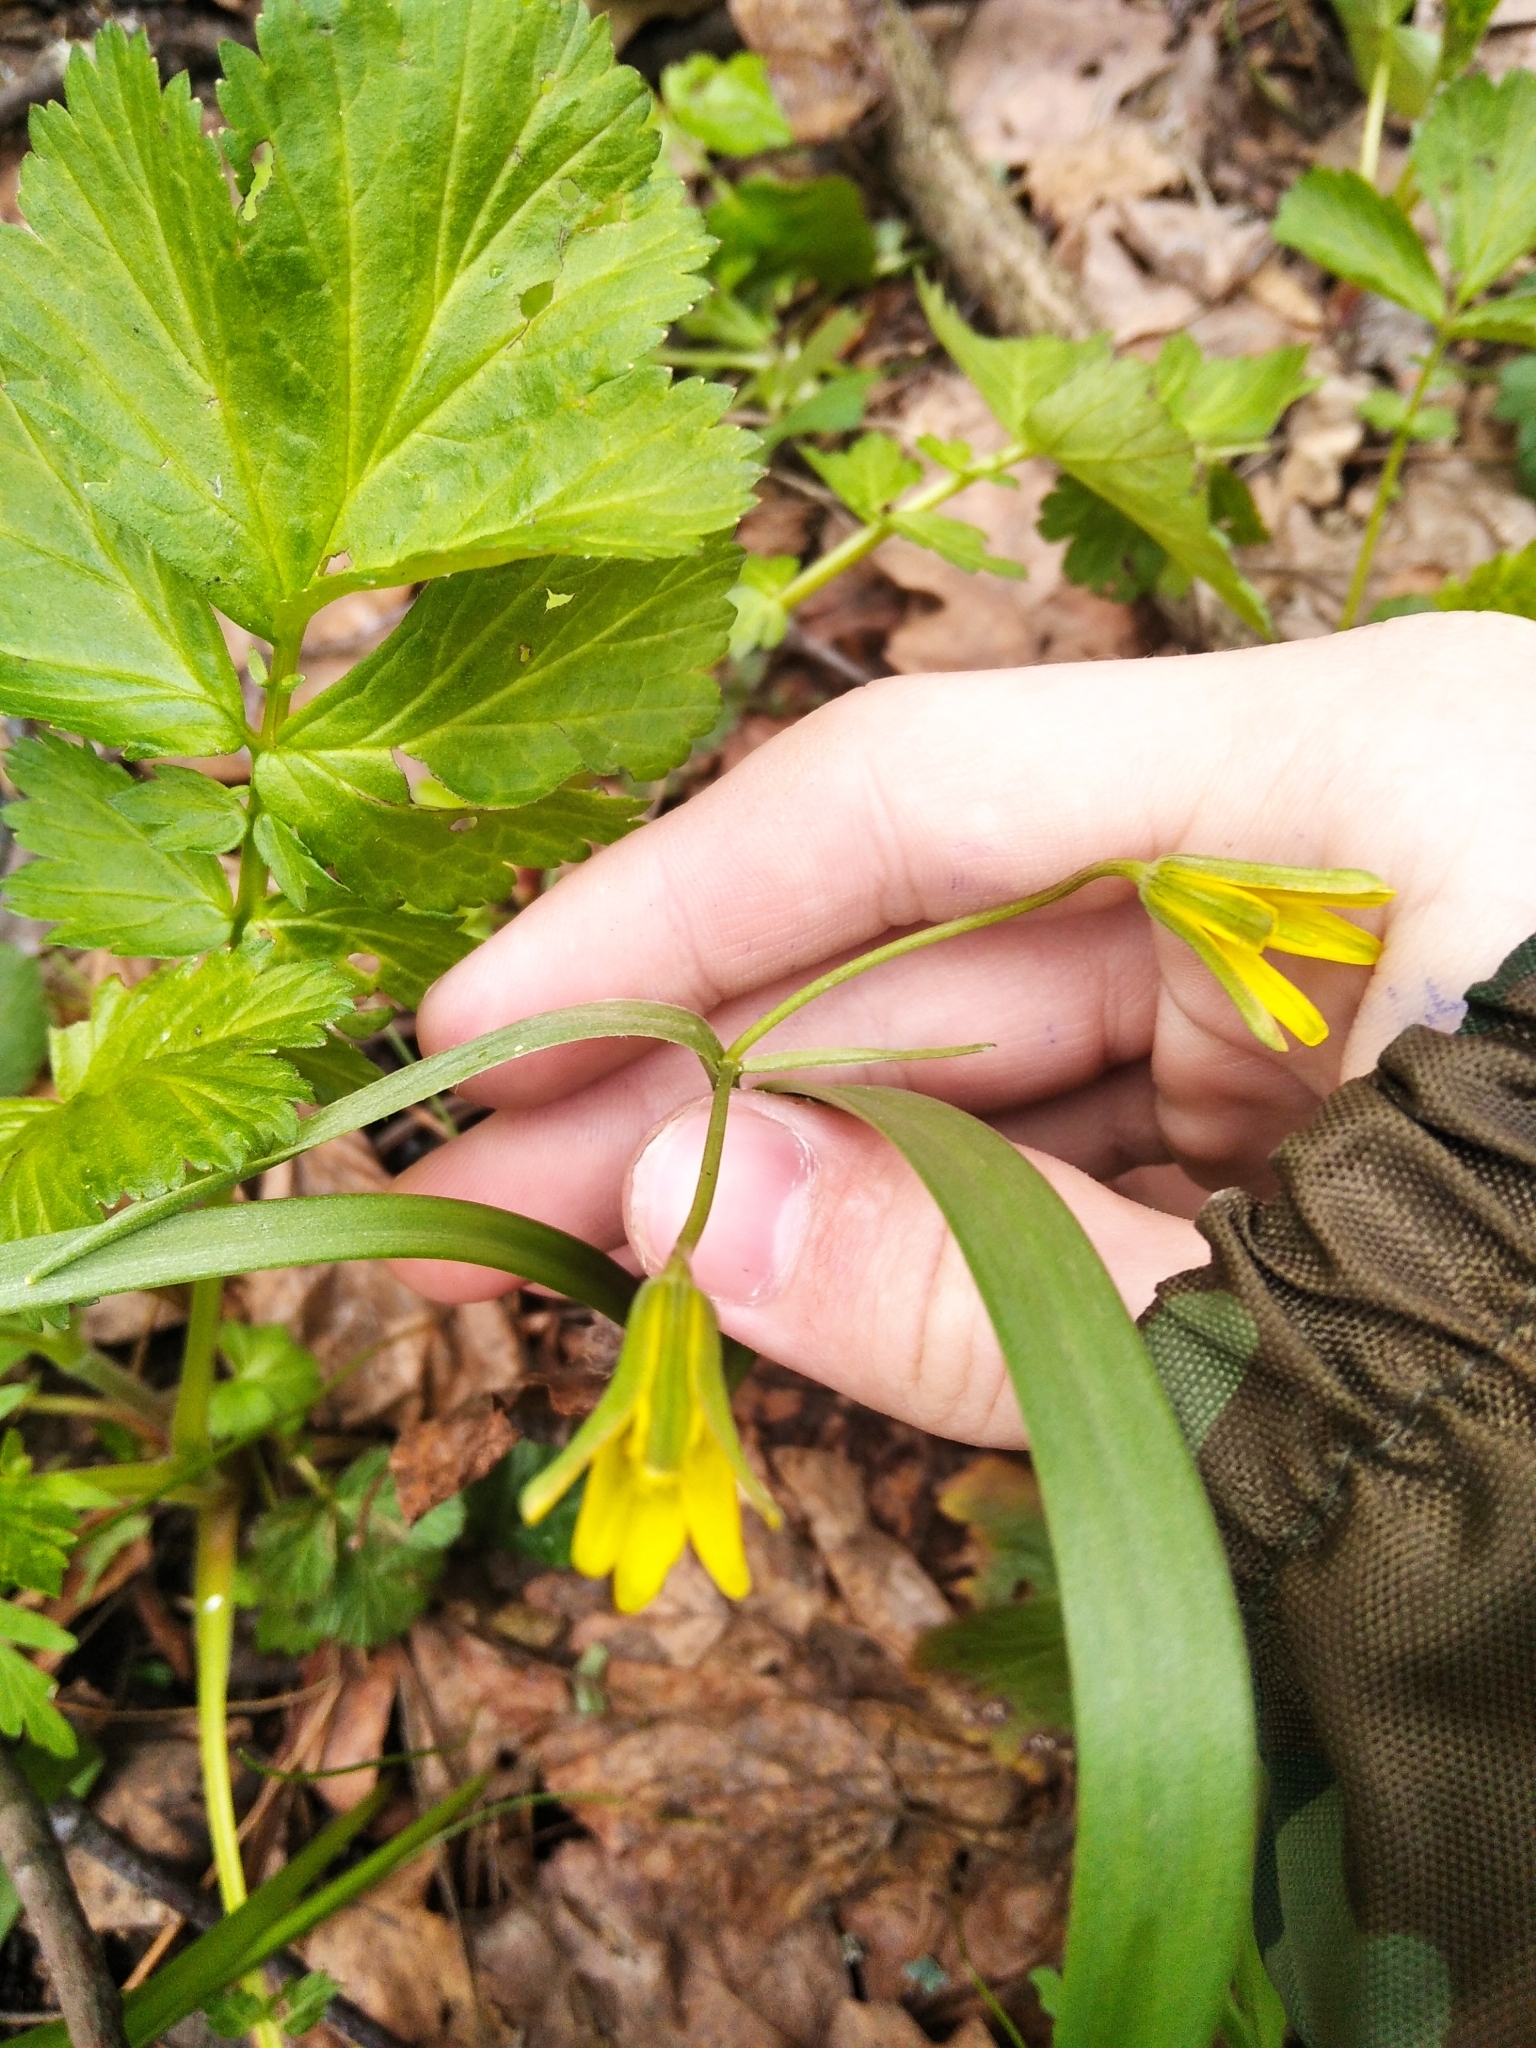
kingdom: Plantae
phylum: Tracheophyta
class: Liliopsida
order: Liliales
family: Liliaceae
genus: Gagea
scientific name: Gagea lutea
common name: Yellow star-of-bethlehem
